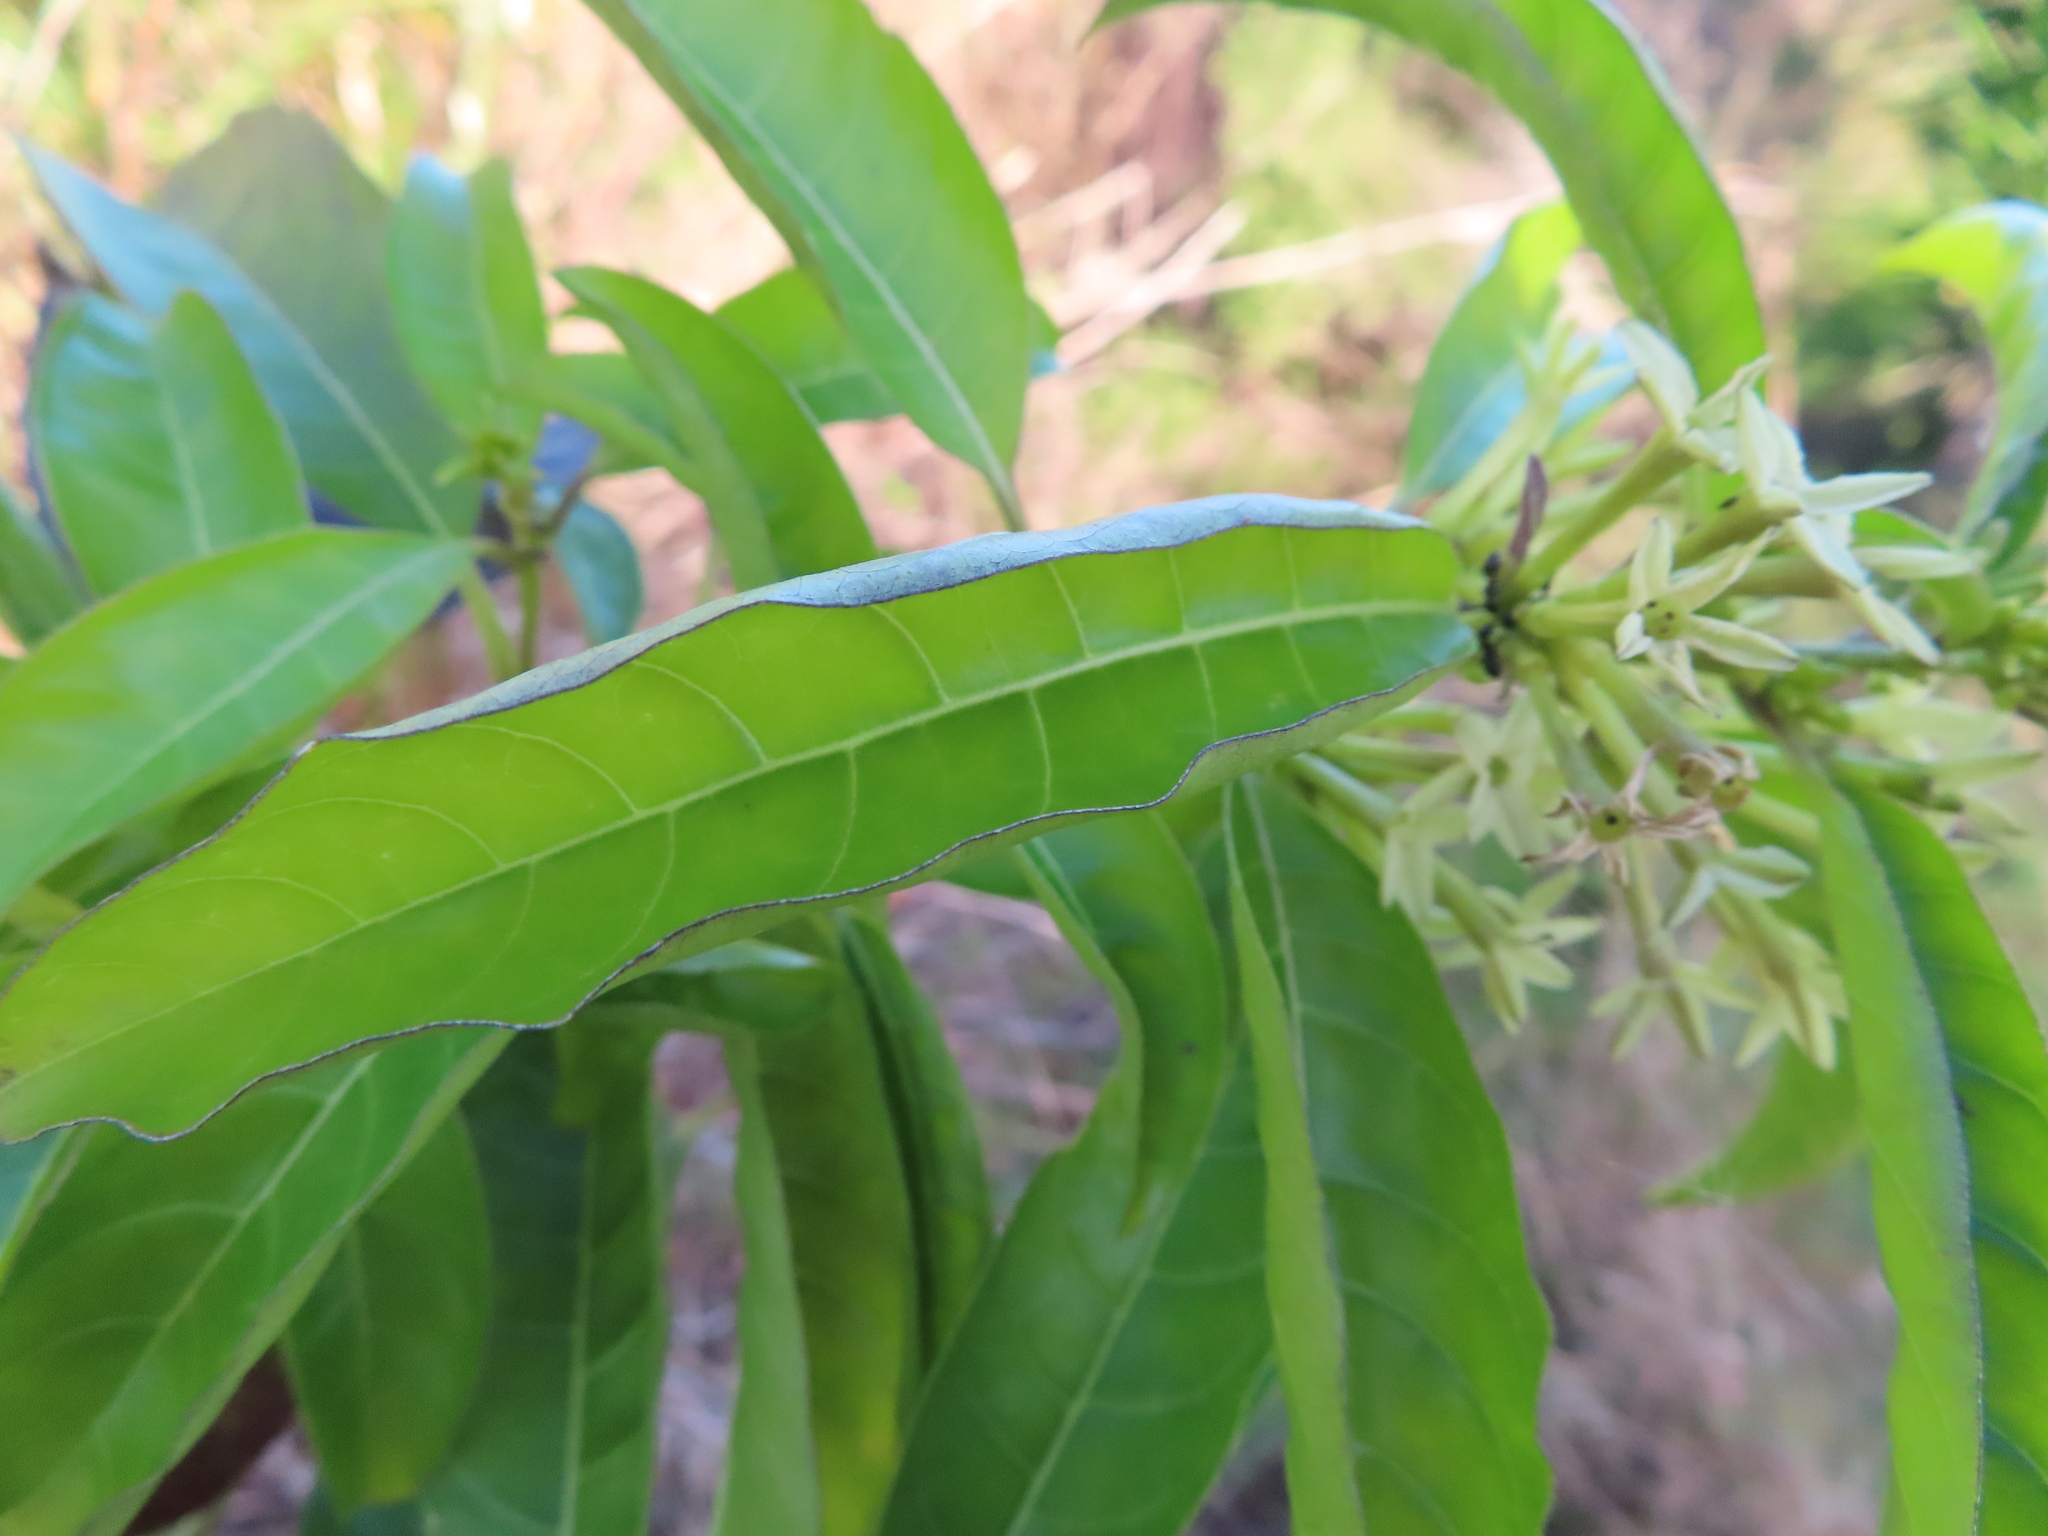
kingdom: Plantae
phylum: Tracheophyta
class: Magnoliopsida
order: Solanales
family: Solanaceae
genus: Cestrum
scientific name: Cestrum laevigatum
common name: Inkberry
